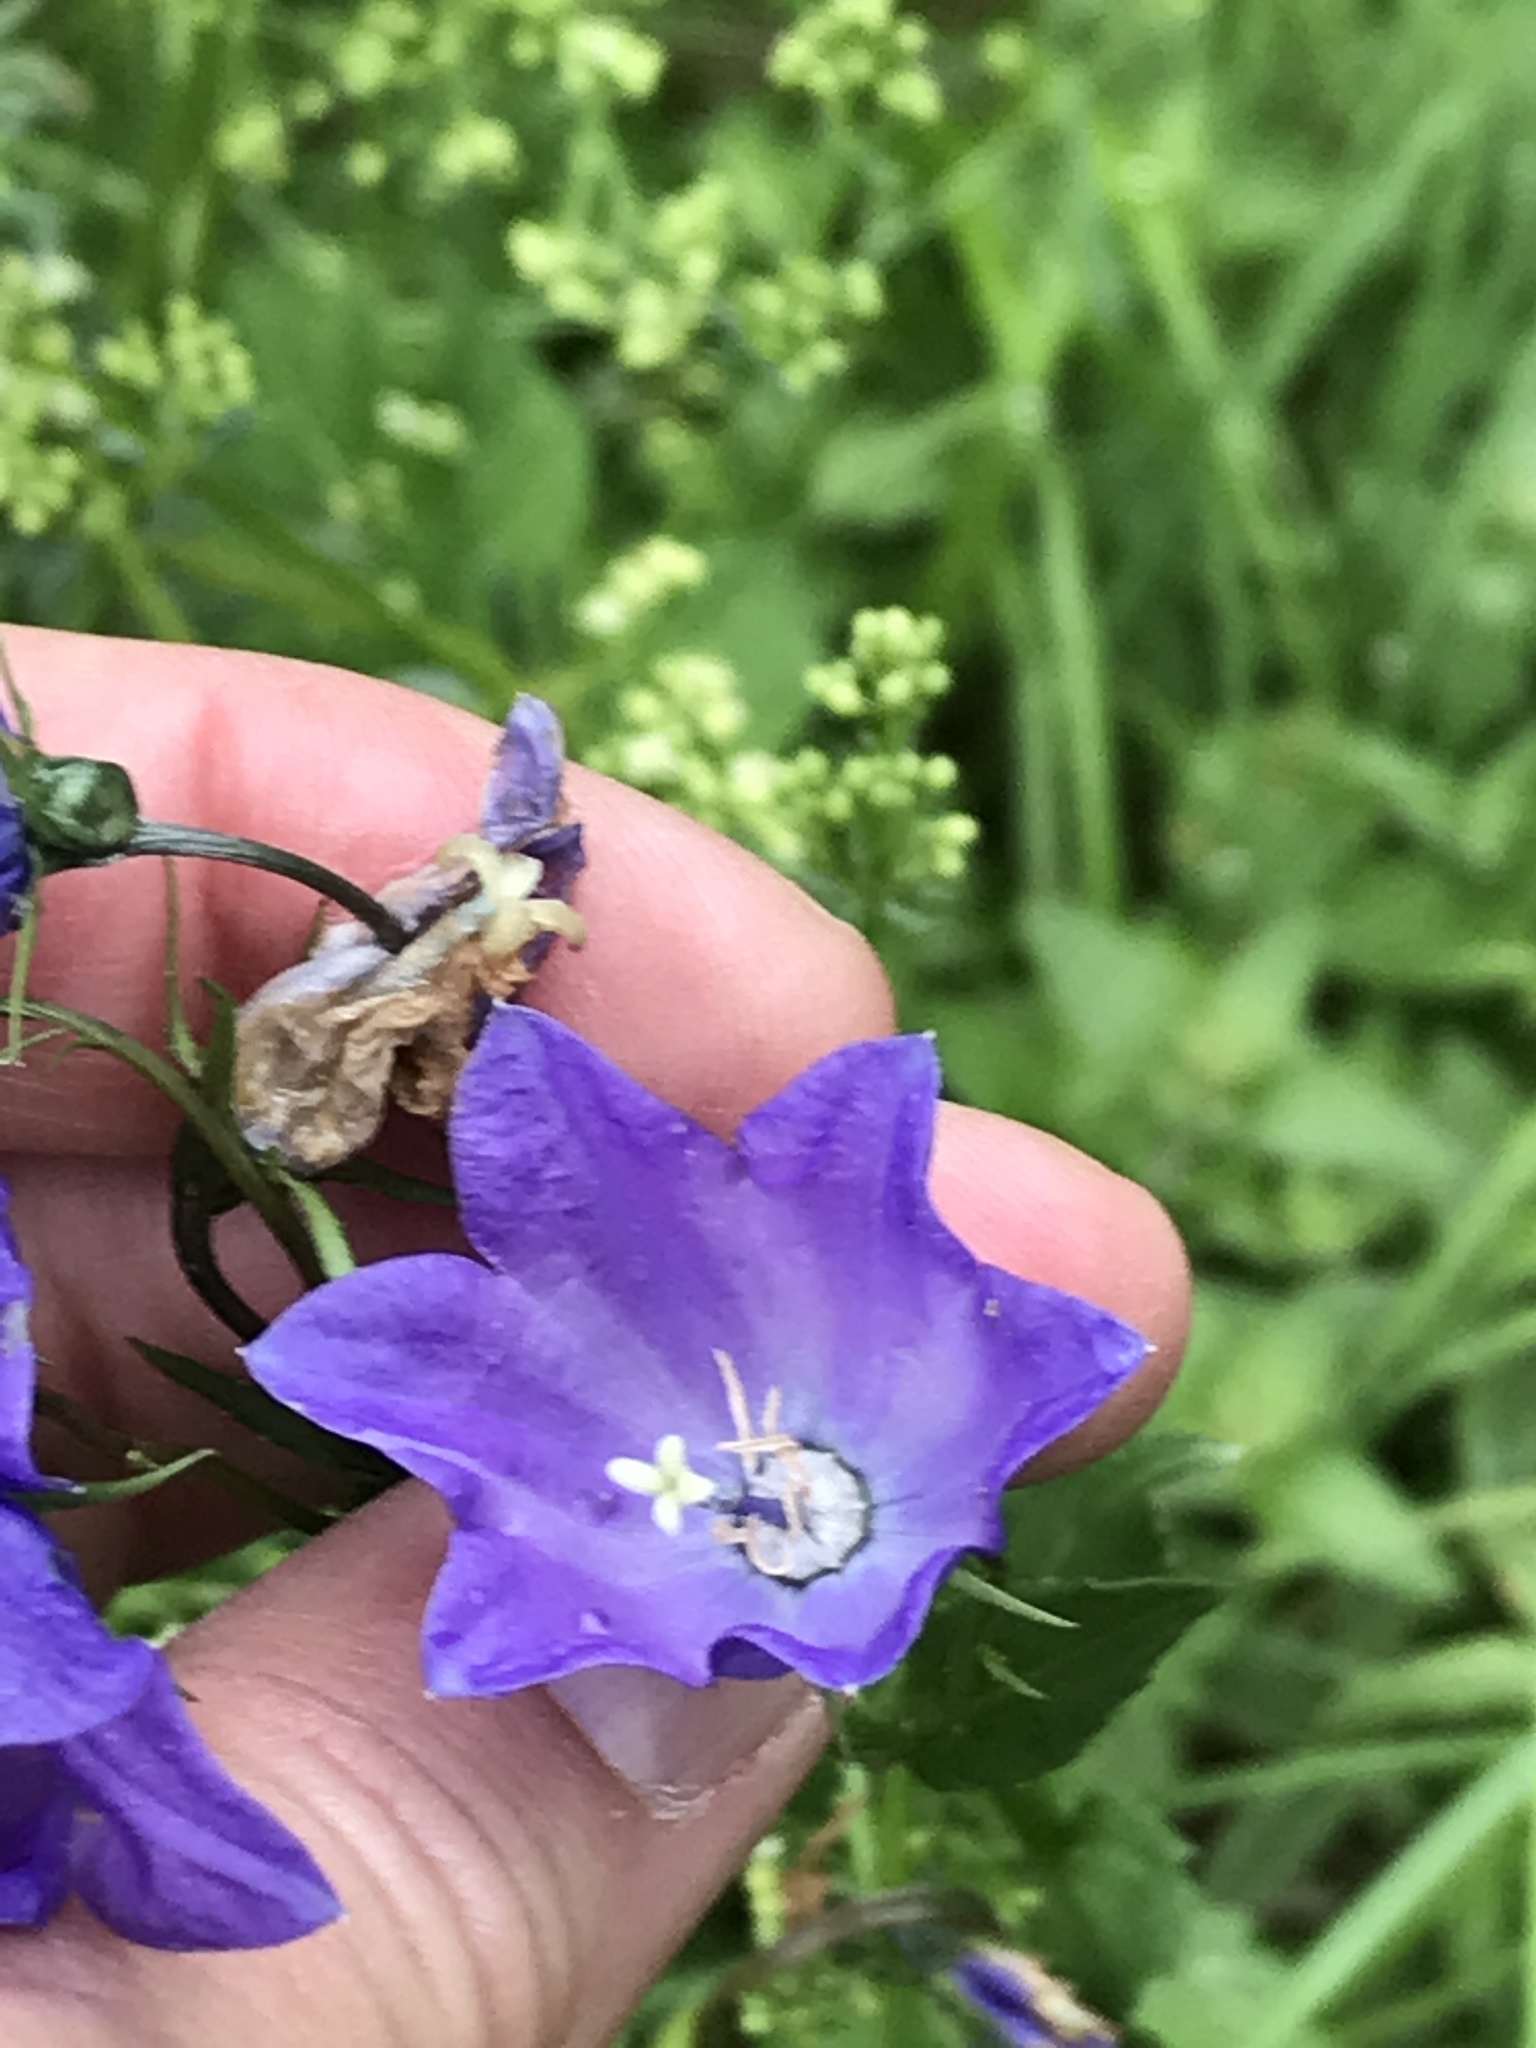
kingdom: Plantae
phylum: Tracheophyta
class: Magnoliopsida
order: Asterales
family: Campanulaceae
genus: Campanula
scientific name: Campanula rhomboidalis
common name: Broad-leaved harebell
